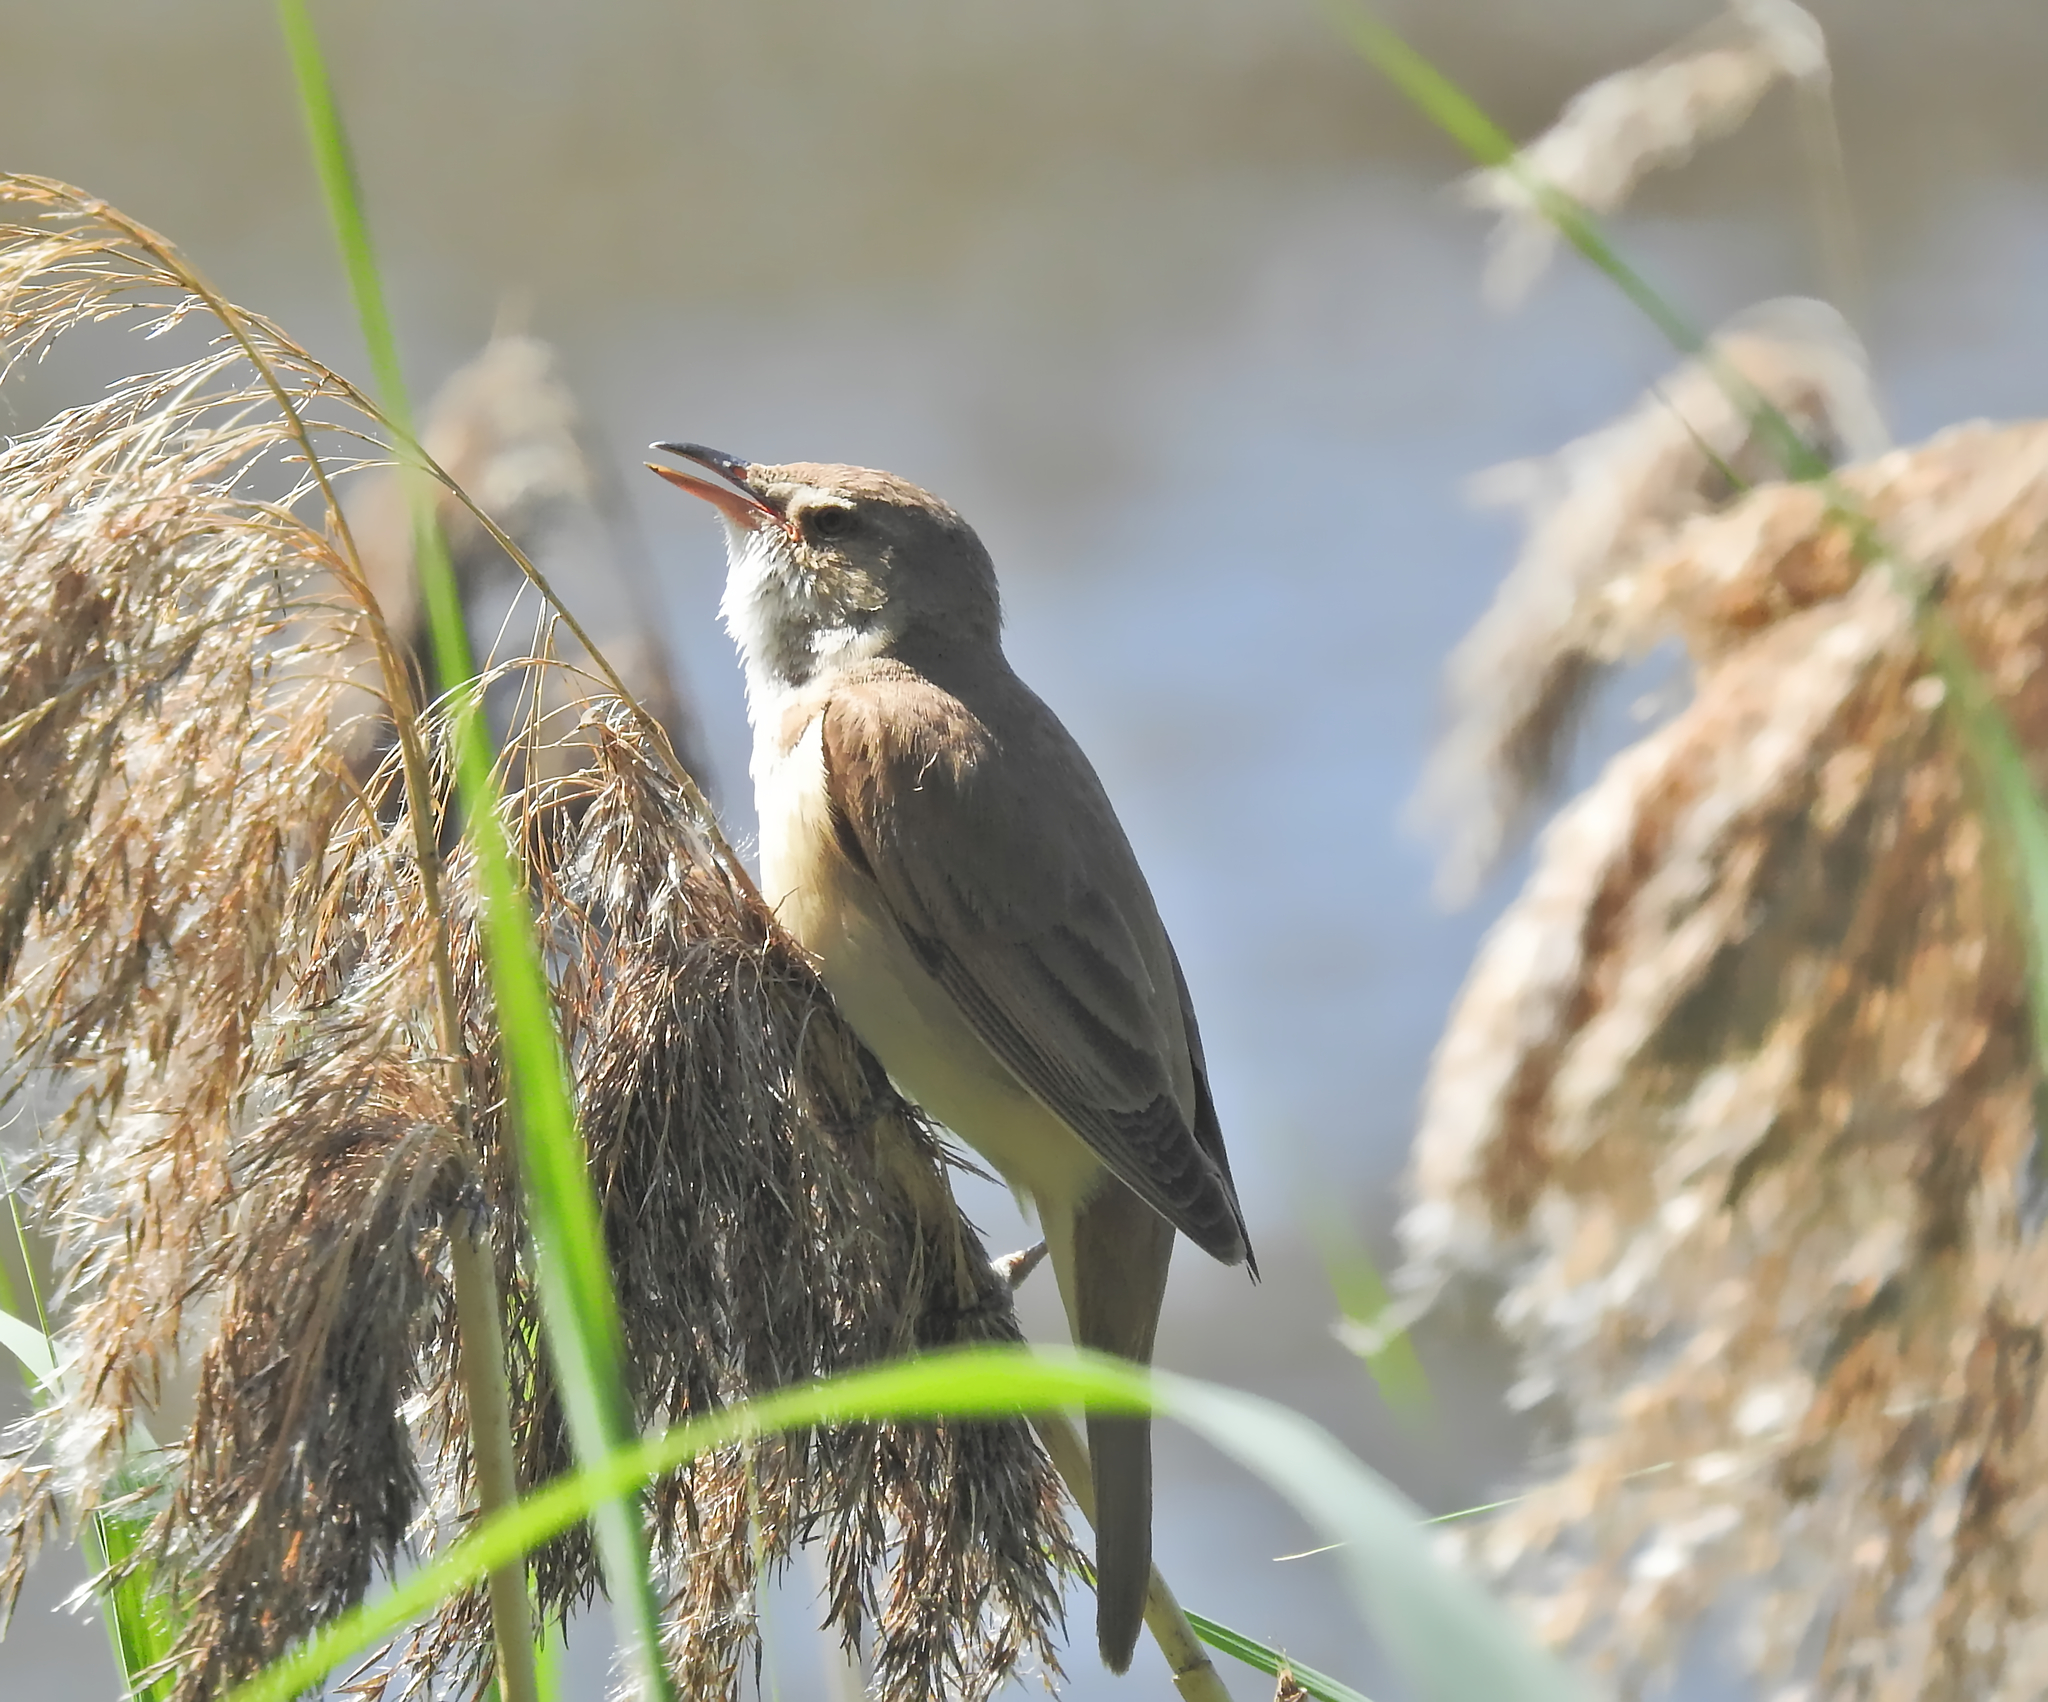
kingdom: Animalia
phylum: Chordata
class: Aves
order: Passeriformes
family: Acrocephalidae
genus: Acrocephalus
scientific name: Acrocephalus arundinaceus
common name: Great reed warbler
